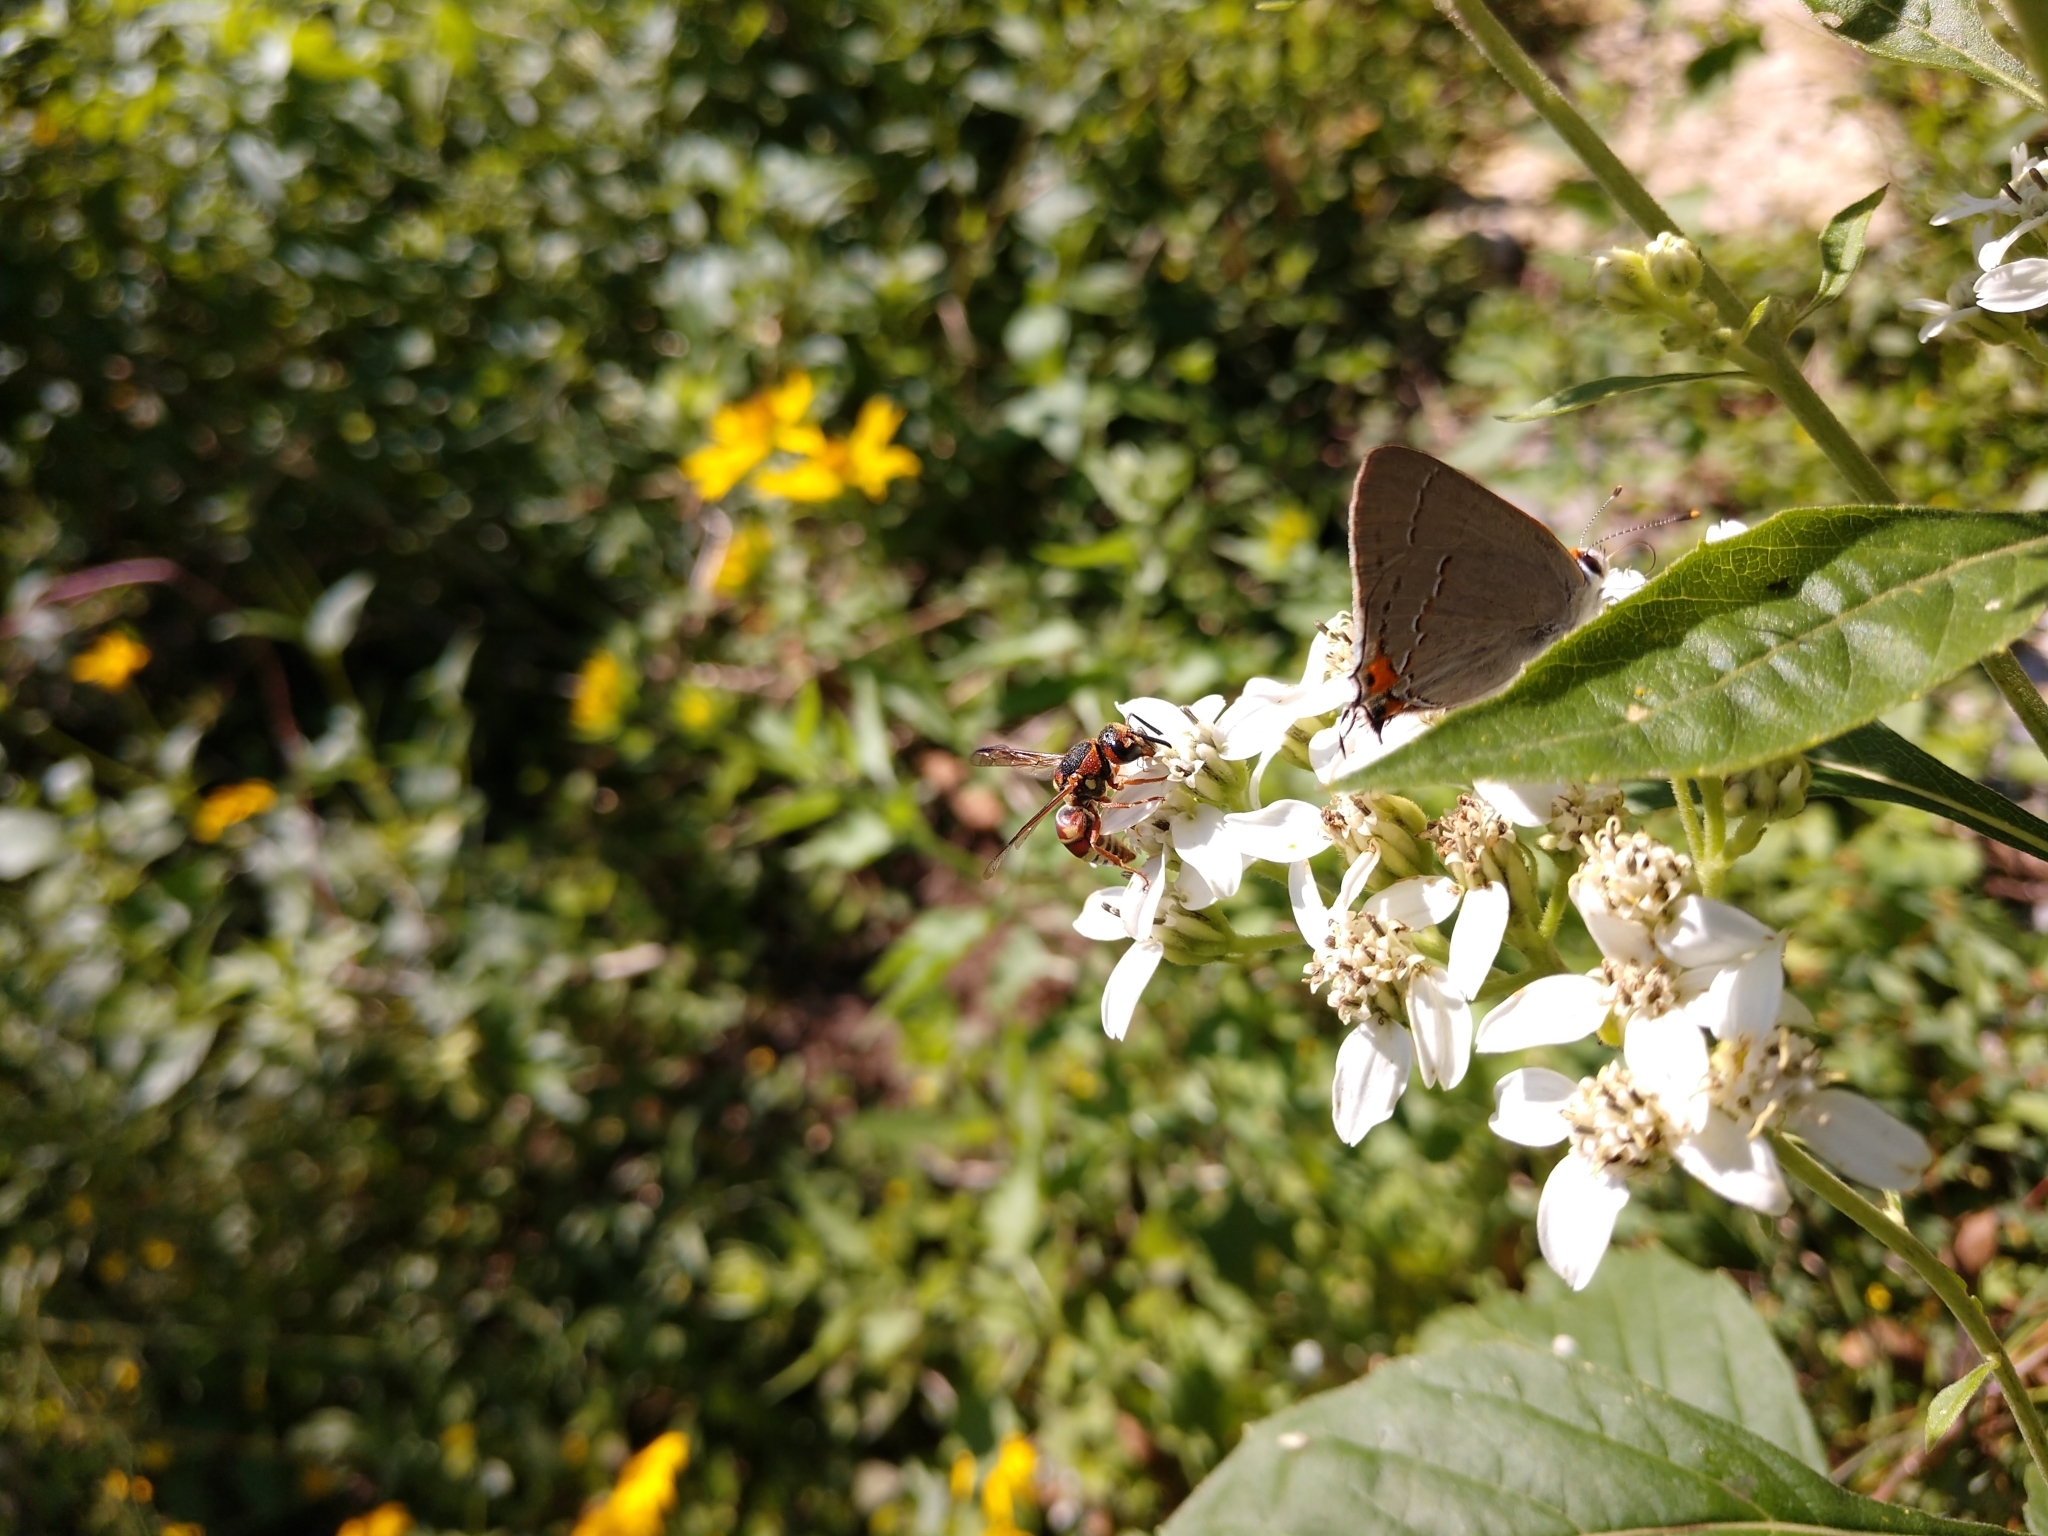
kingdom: Animalia
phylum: Arthropoda
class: Insecta
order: Hymenoptera
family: Eumenidae
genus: Euodynerus
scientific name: Euodynerus
